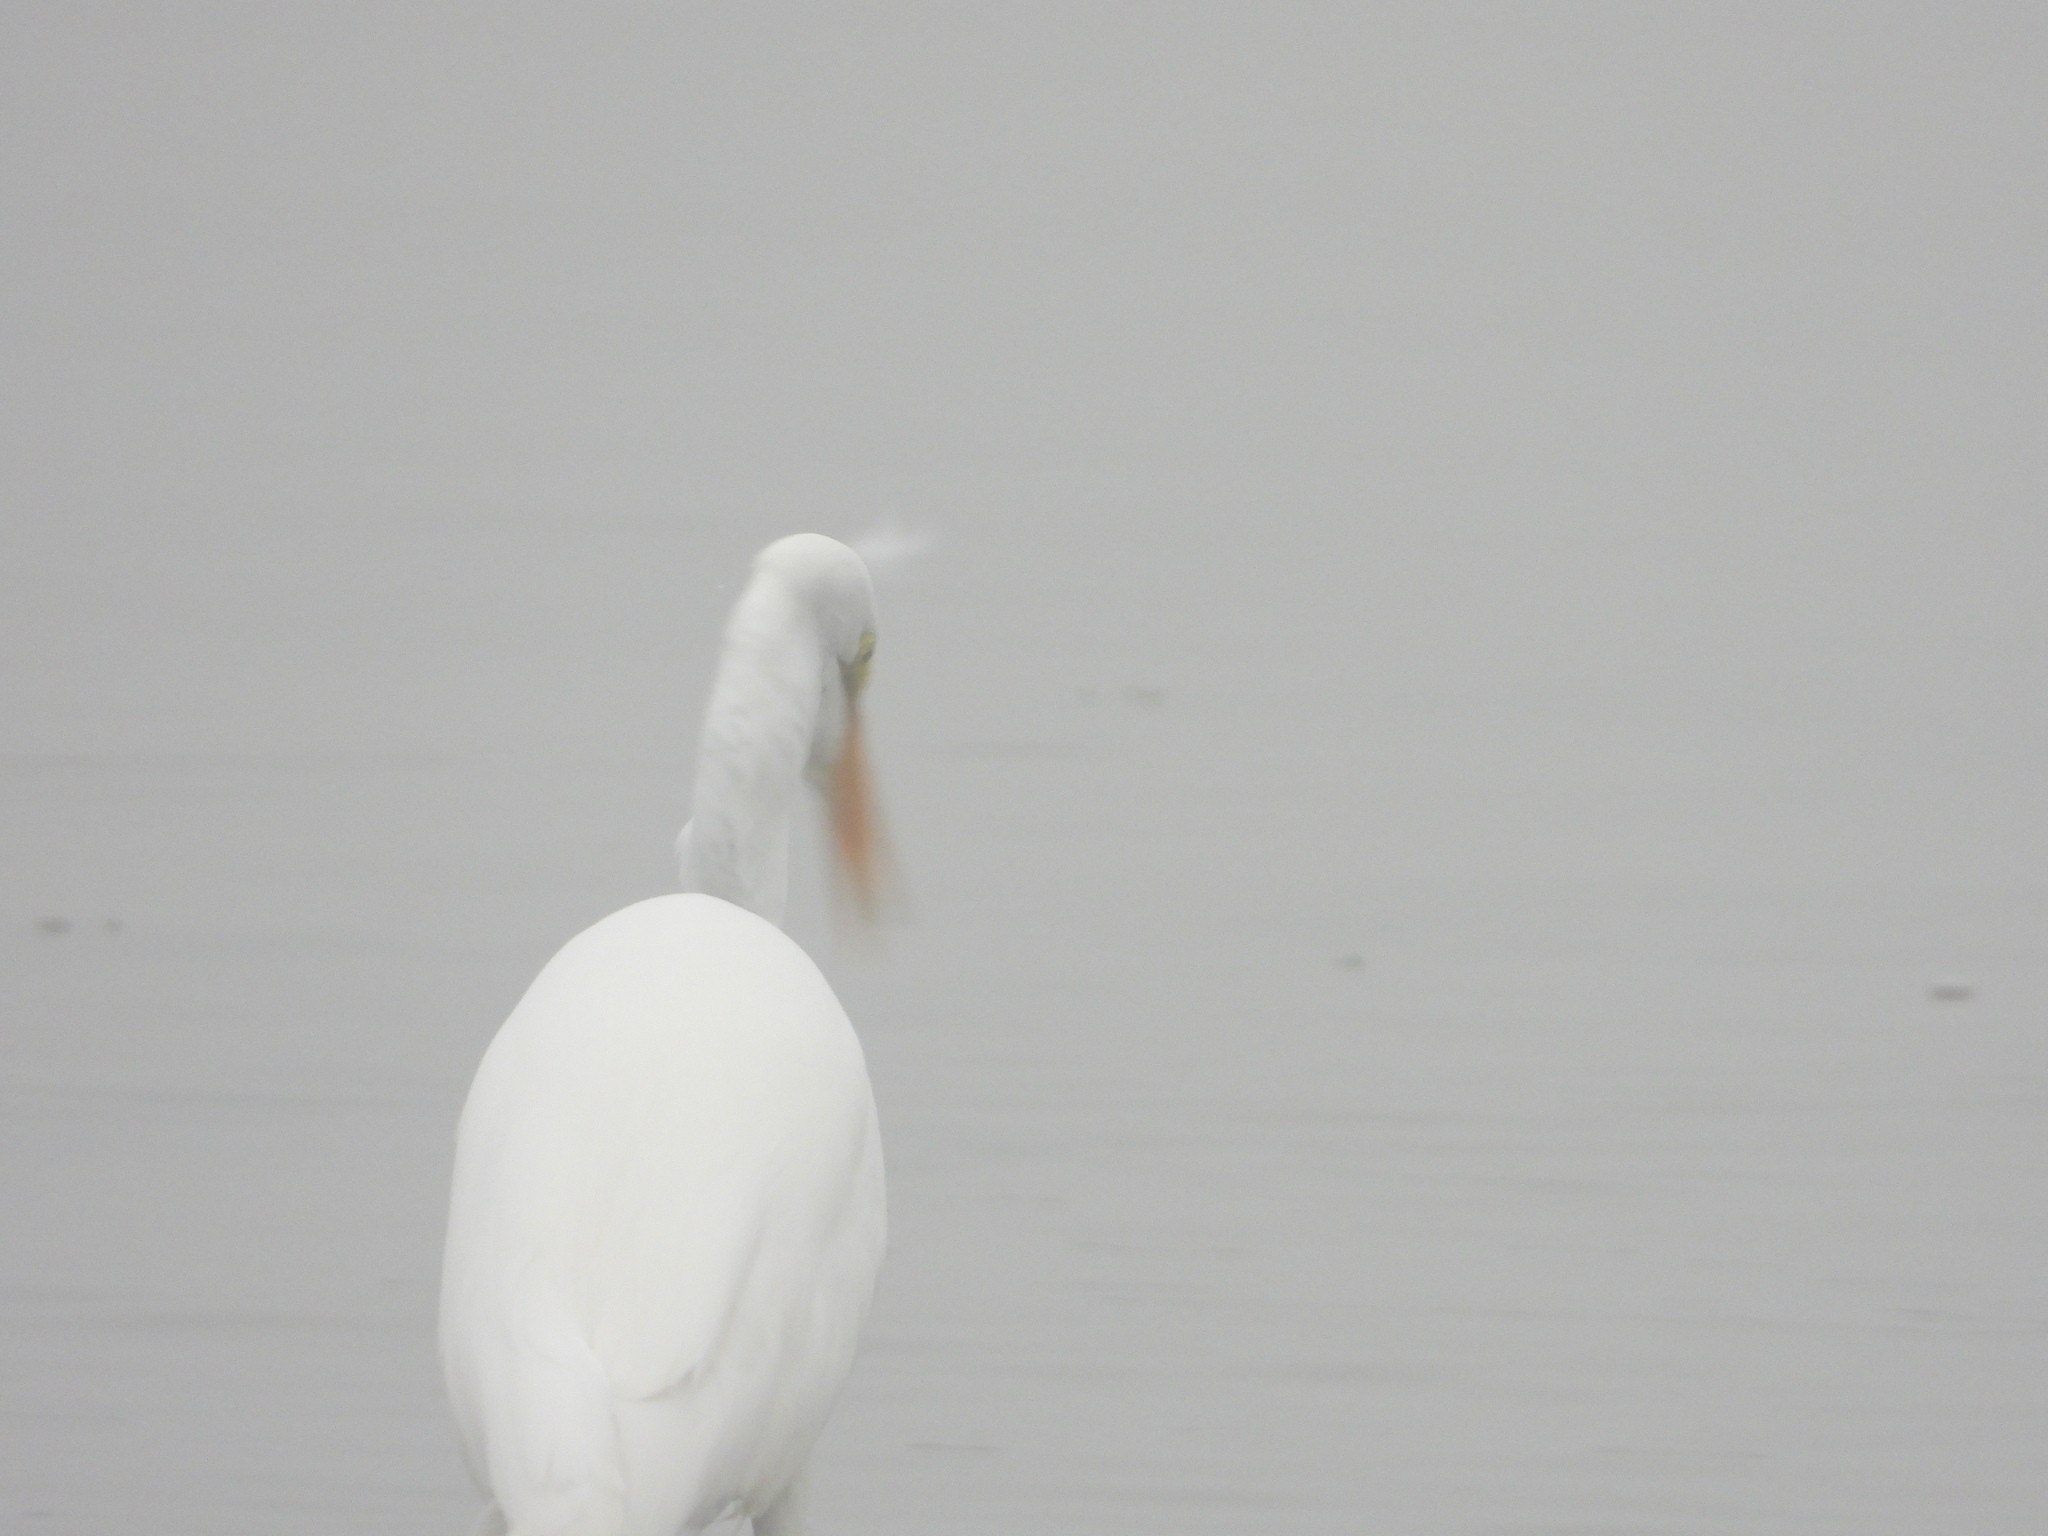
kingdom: Animalia
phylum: Chordata
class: Aves
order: Pelecaniformes
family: Ardeidae
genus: Ardea
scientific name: Ardea alba
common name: Great egret
